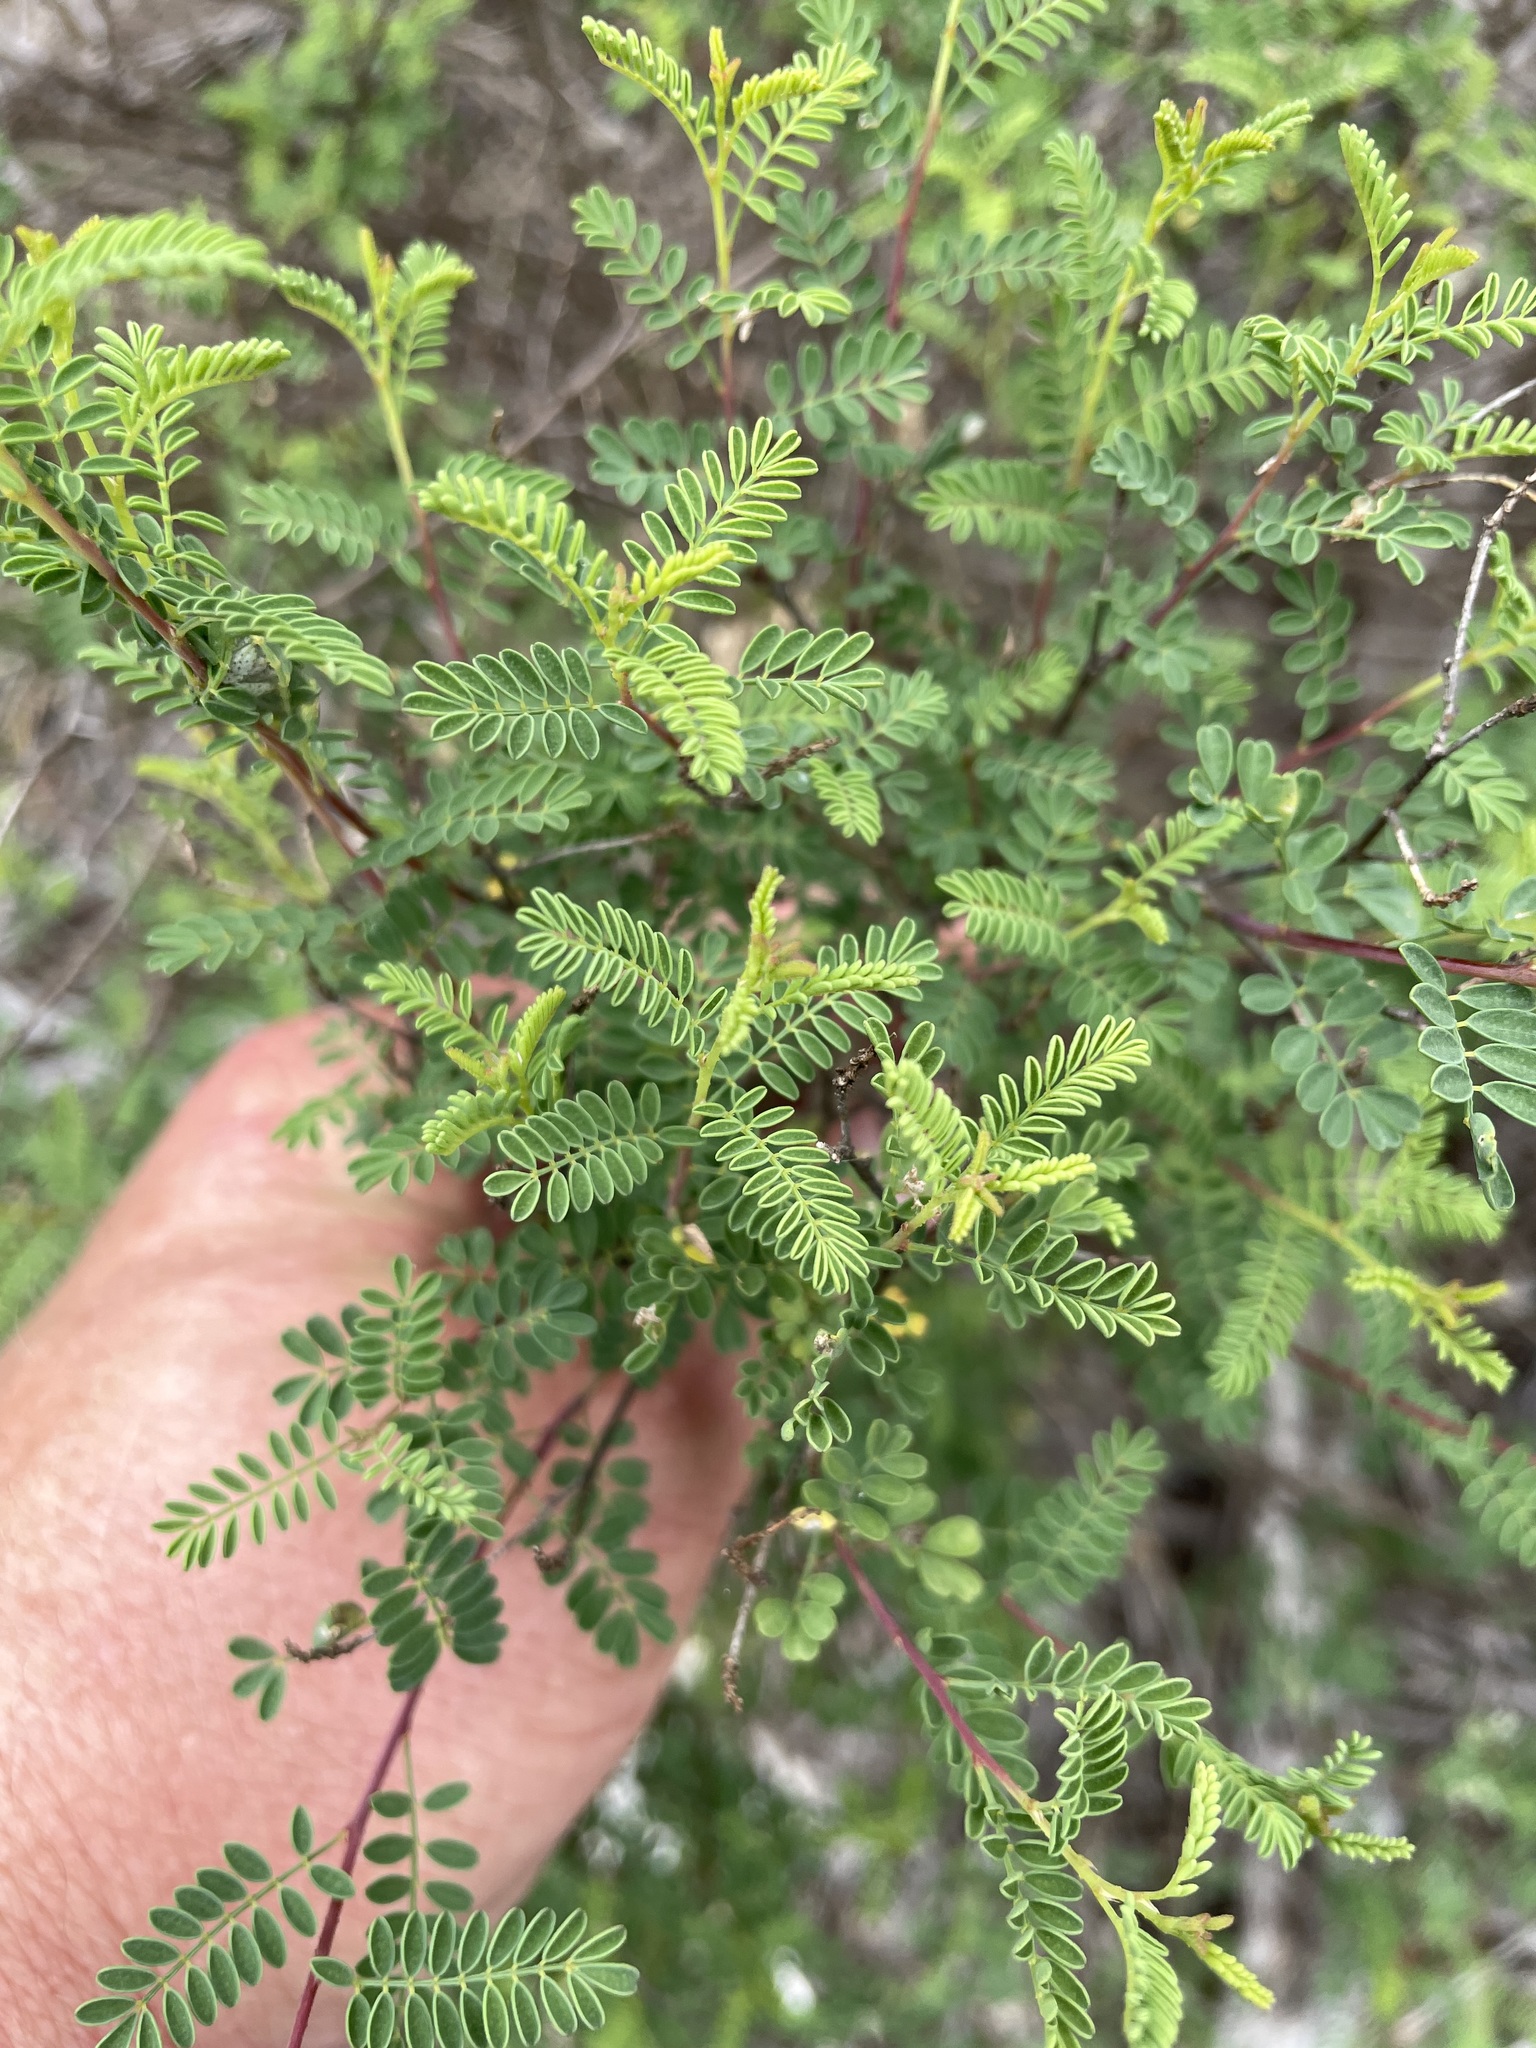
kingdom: Plantae
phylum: Tracheophyta
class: Magnoliopsida
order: Fabales
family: Fabaceae
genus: Dalea
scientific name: Dalea frutescens
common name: Black dalea
